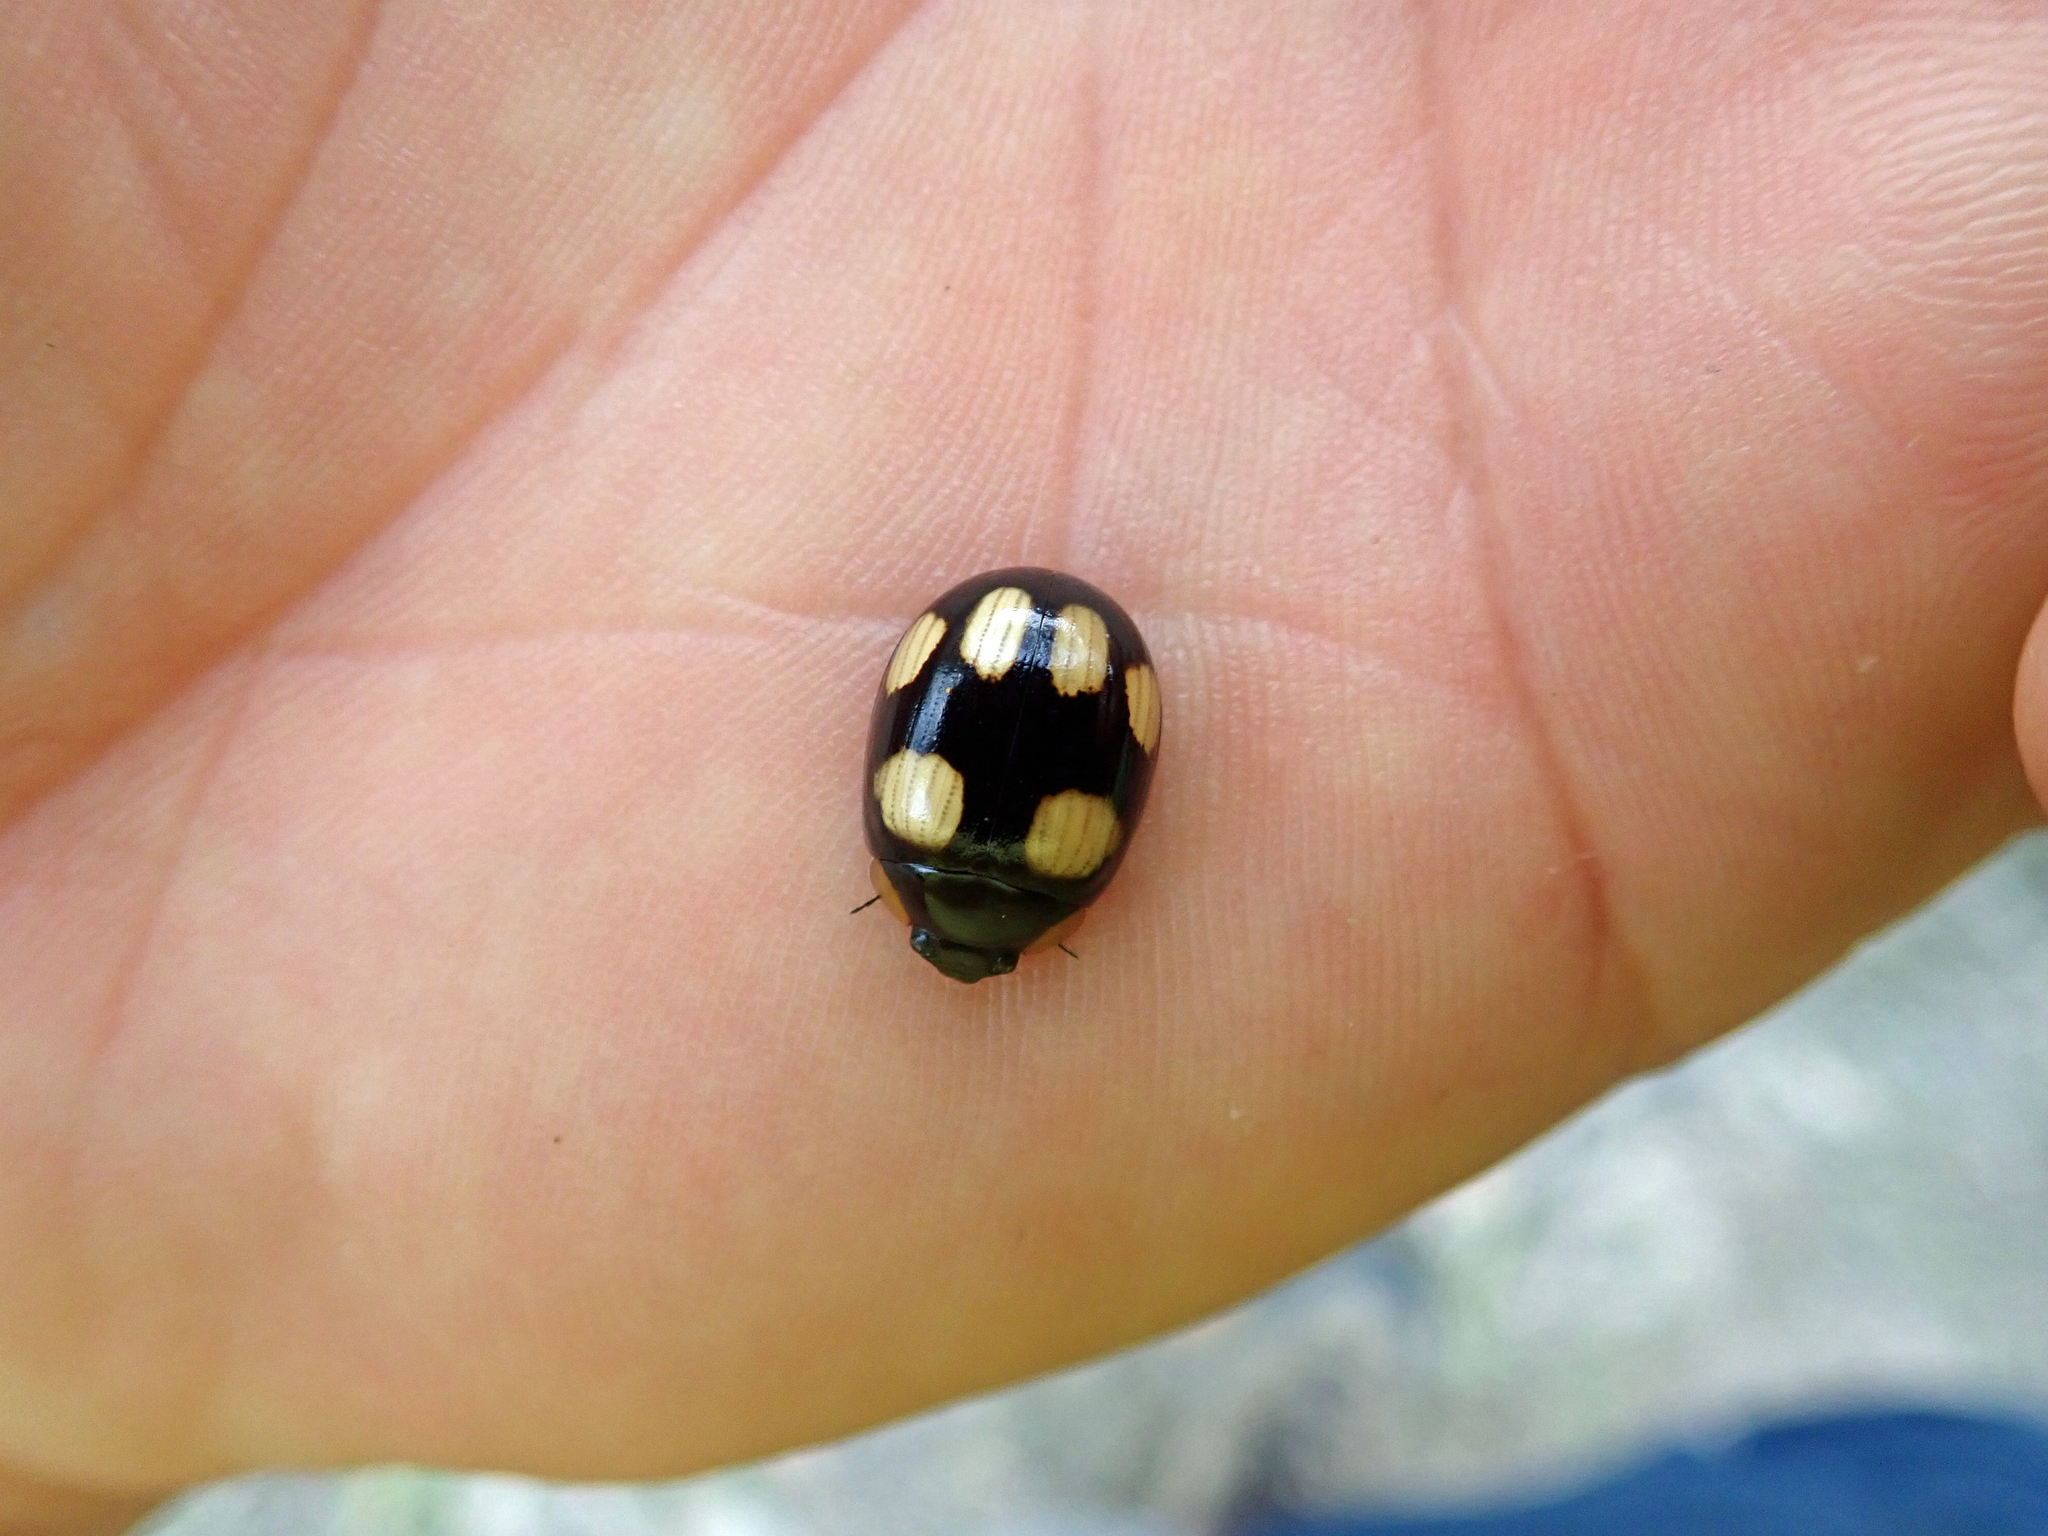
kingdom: Animalia
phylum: Arthropoda
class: Insecta
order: Coleoptera
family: Chrysomelidae
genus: Paropsisterna
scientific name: Paropsisterna
